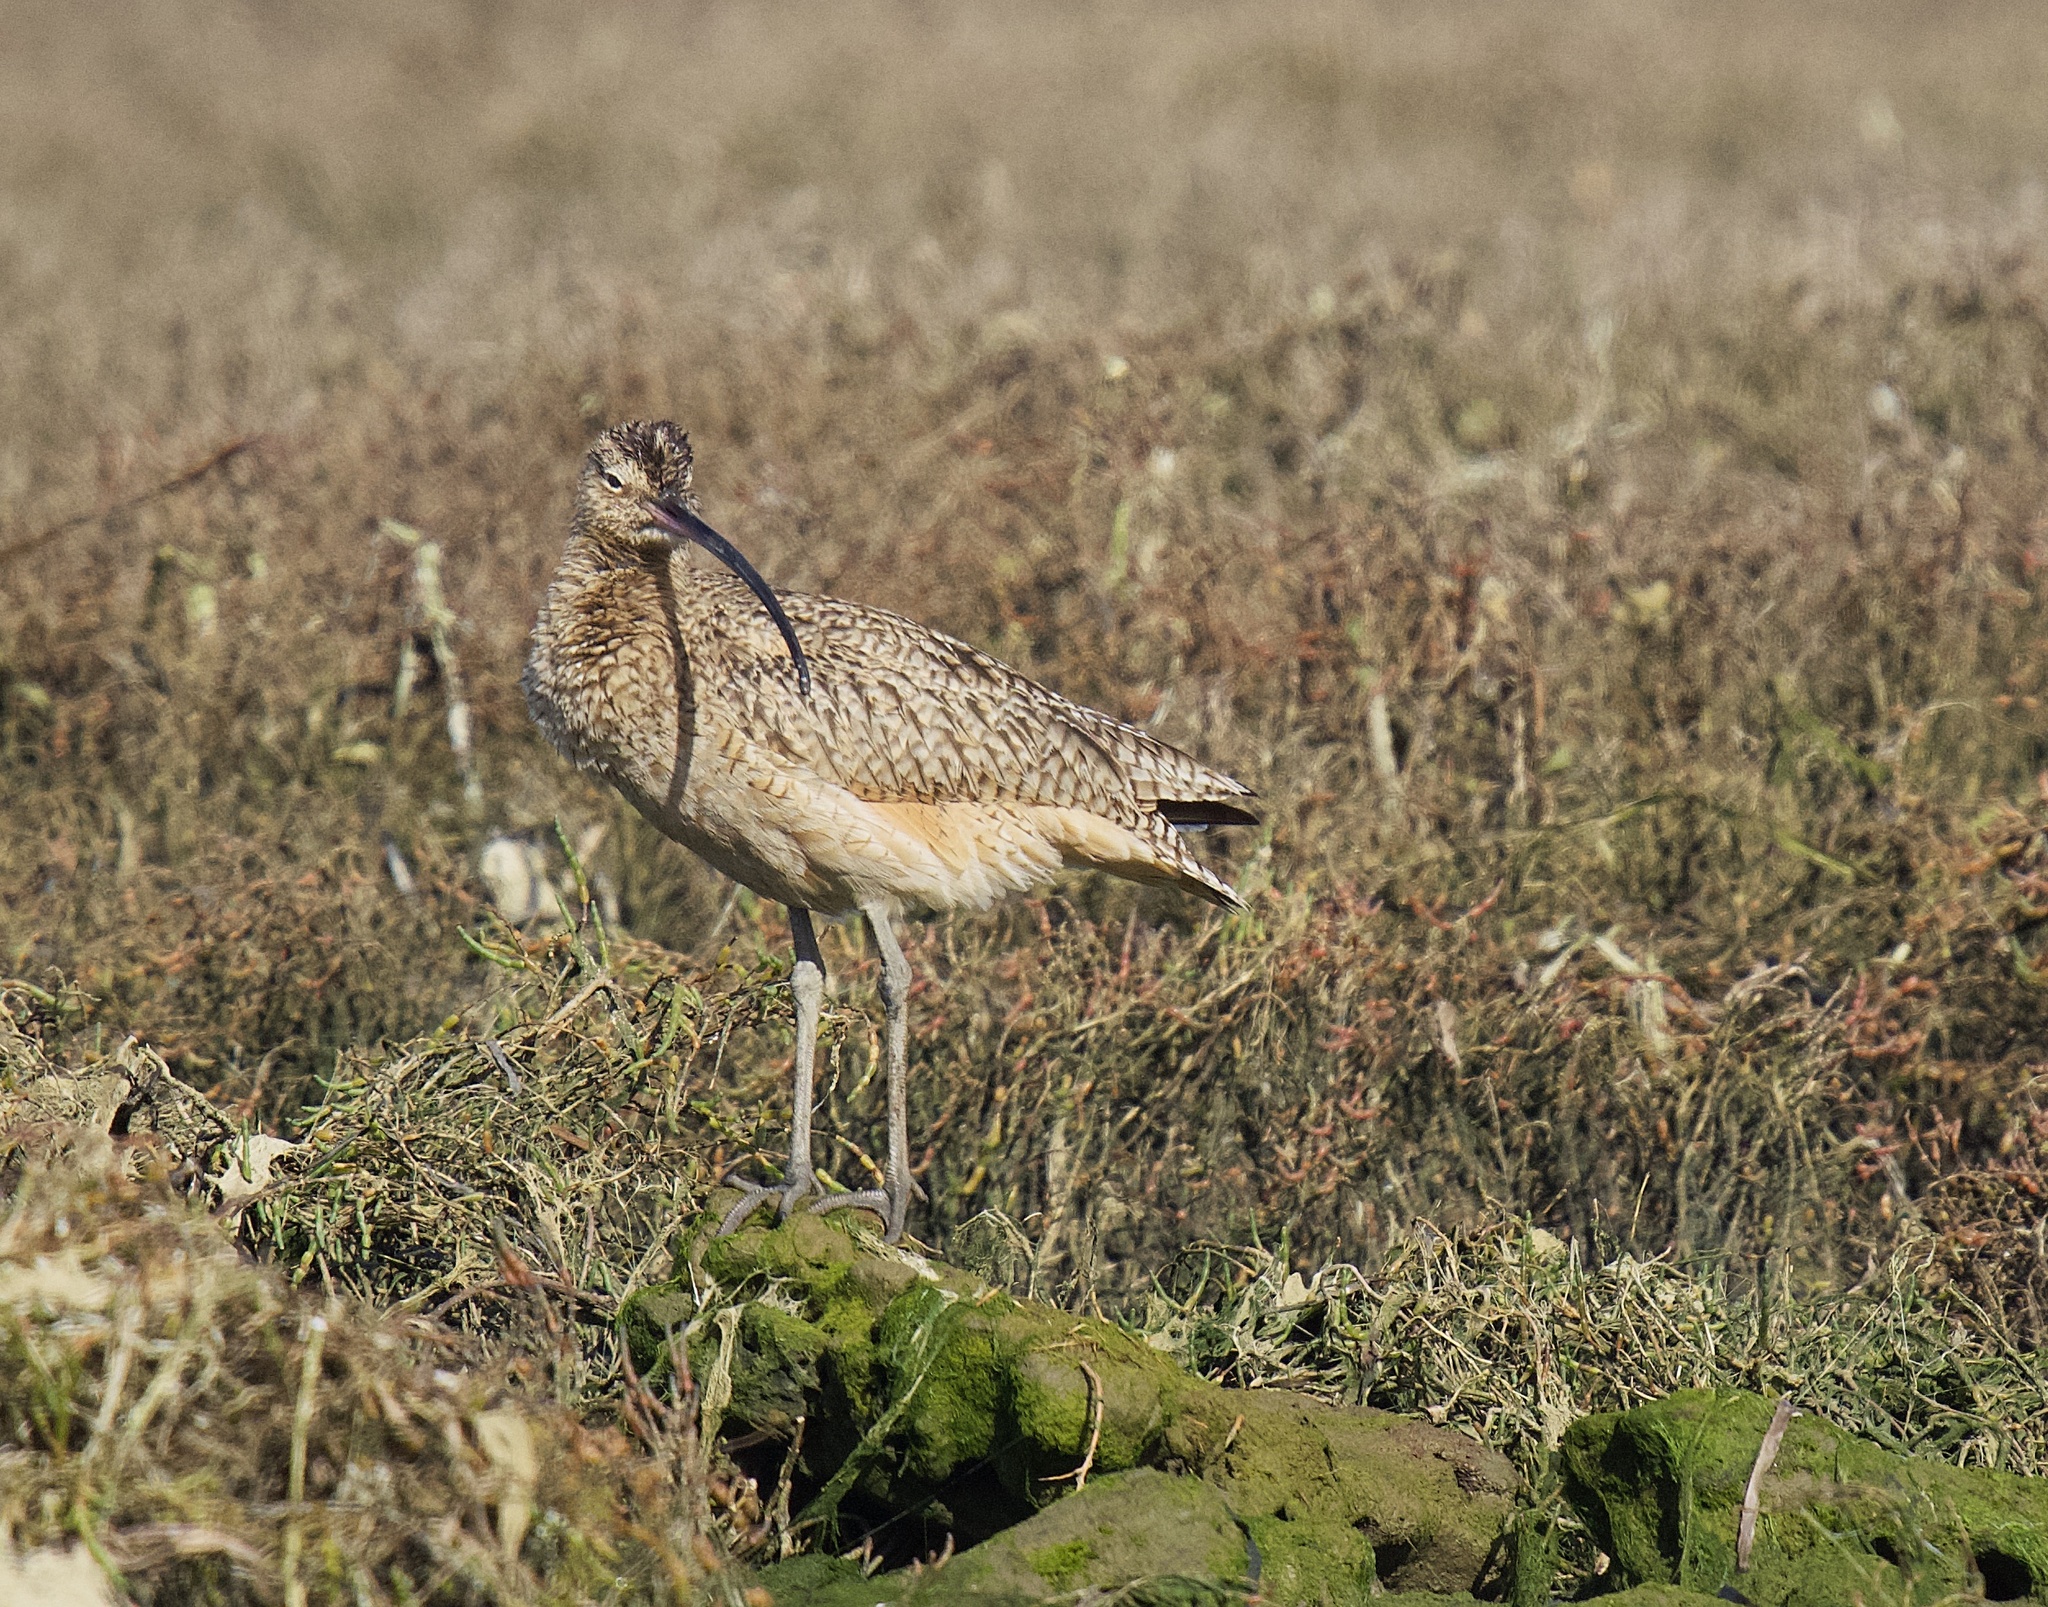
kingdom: Animalia
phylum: Chordata
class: Aves
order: Charadriiformes
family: Scolopacidae
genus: Numenius
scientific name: Numenius americanus
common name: Long-billed curlew
